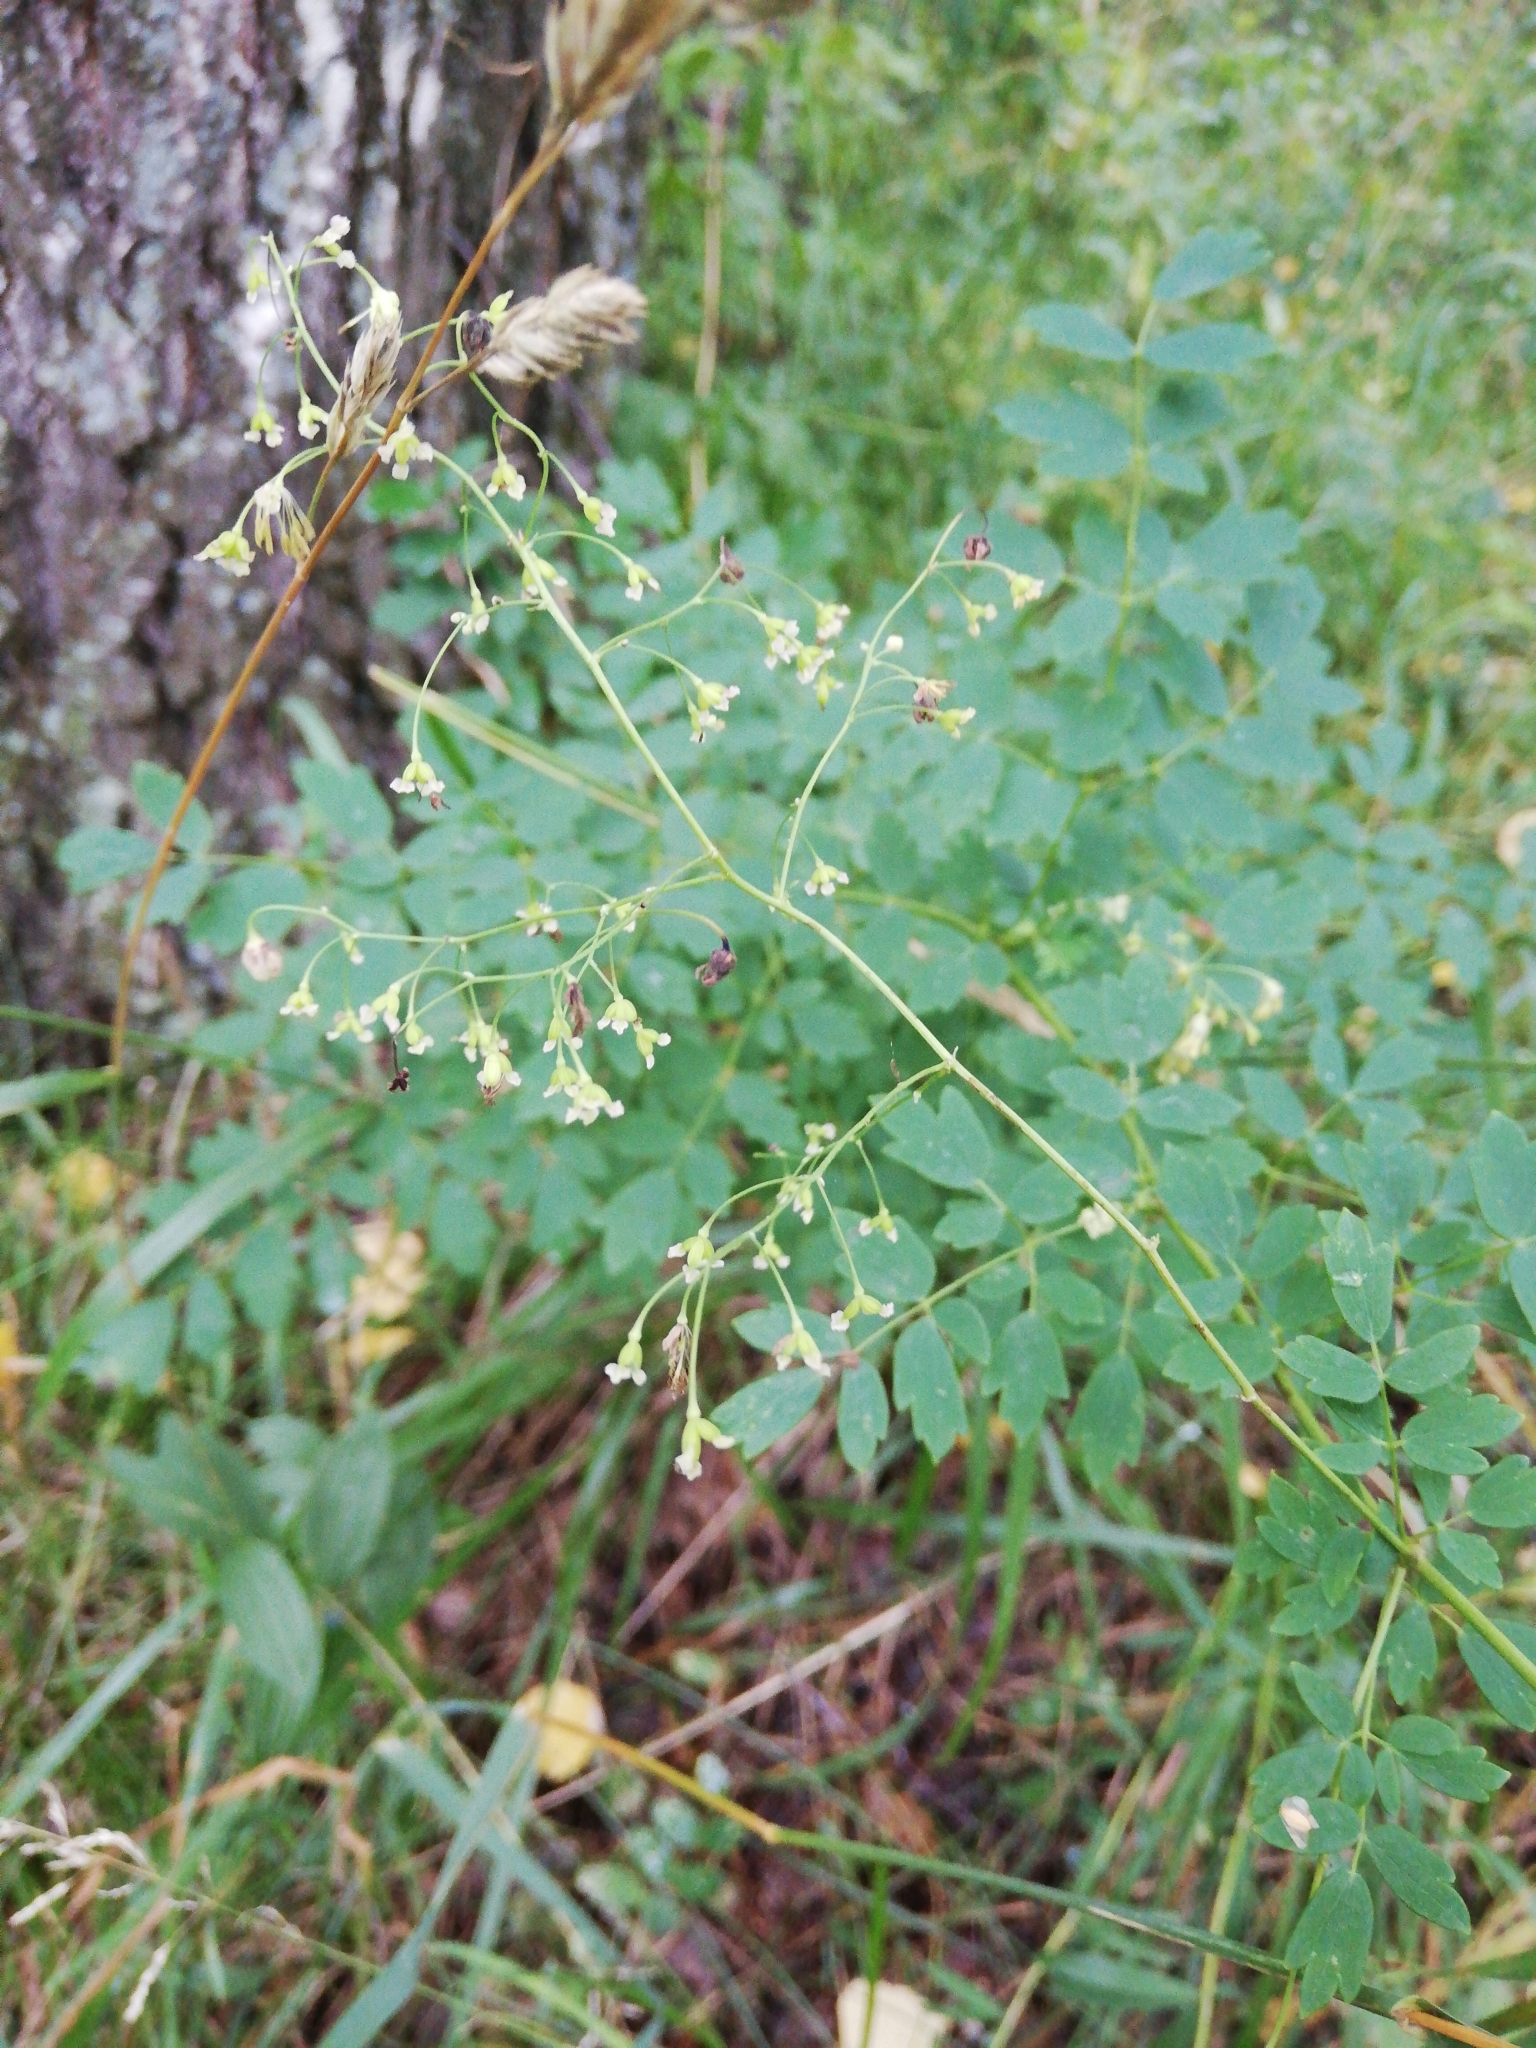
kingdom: Plantae
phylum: Tracheophyta
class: Magnoliopsida
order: Ranunculales
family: Ranunculaceae
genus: Thalictrum
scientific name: Thalictrum minus
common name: Lesser meadow-rue
